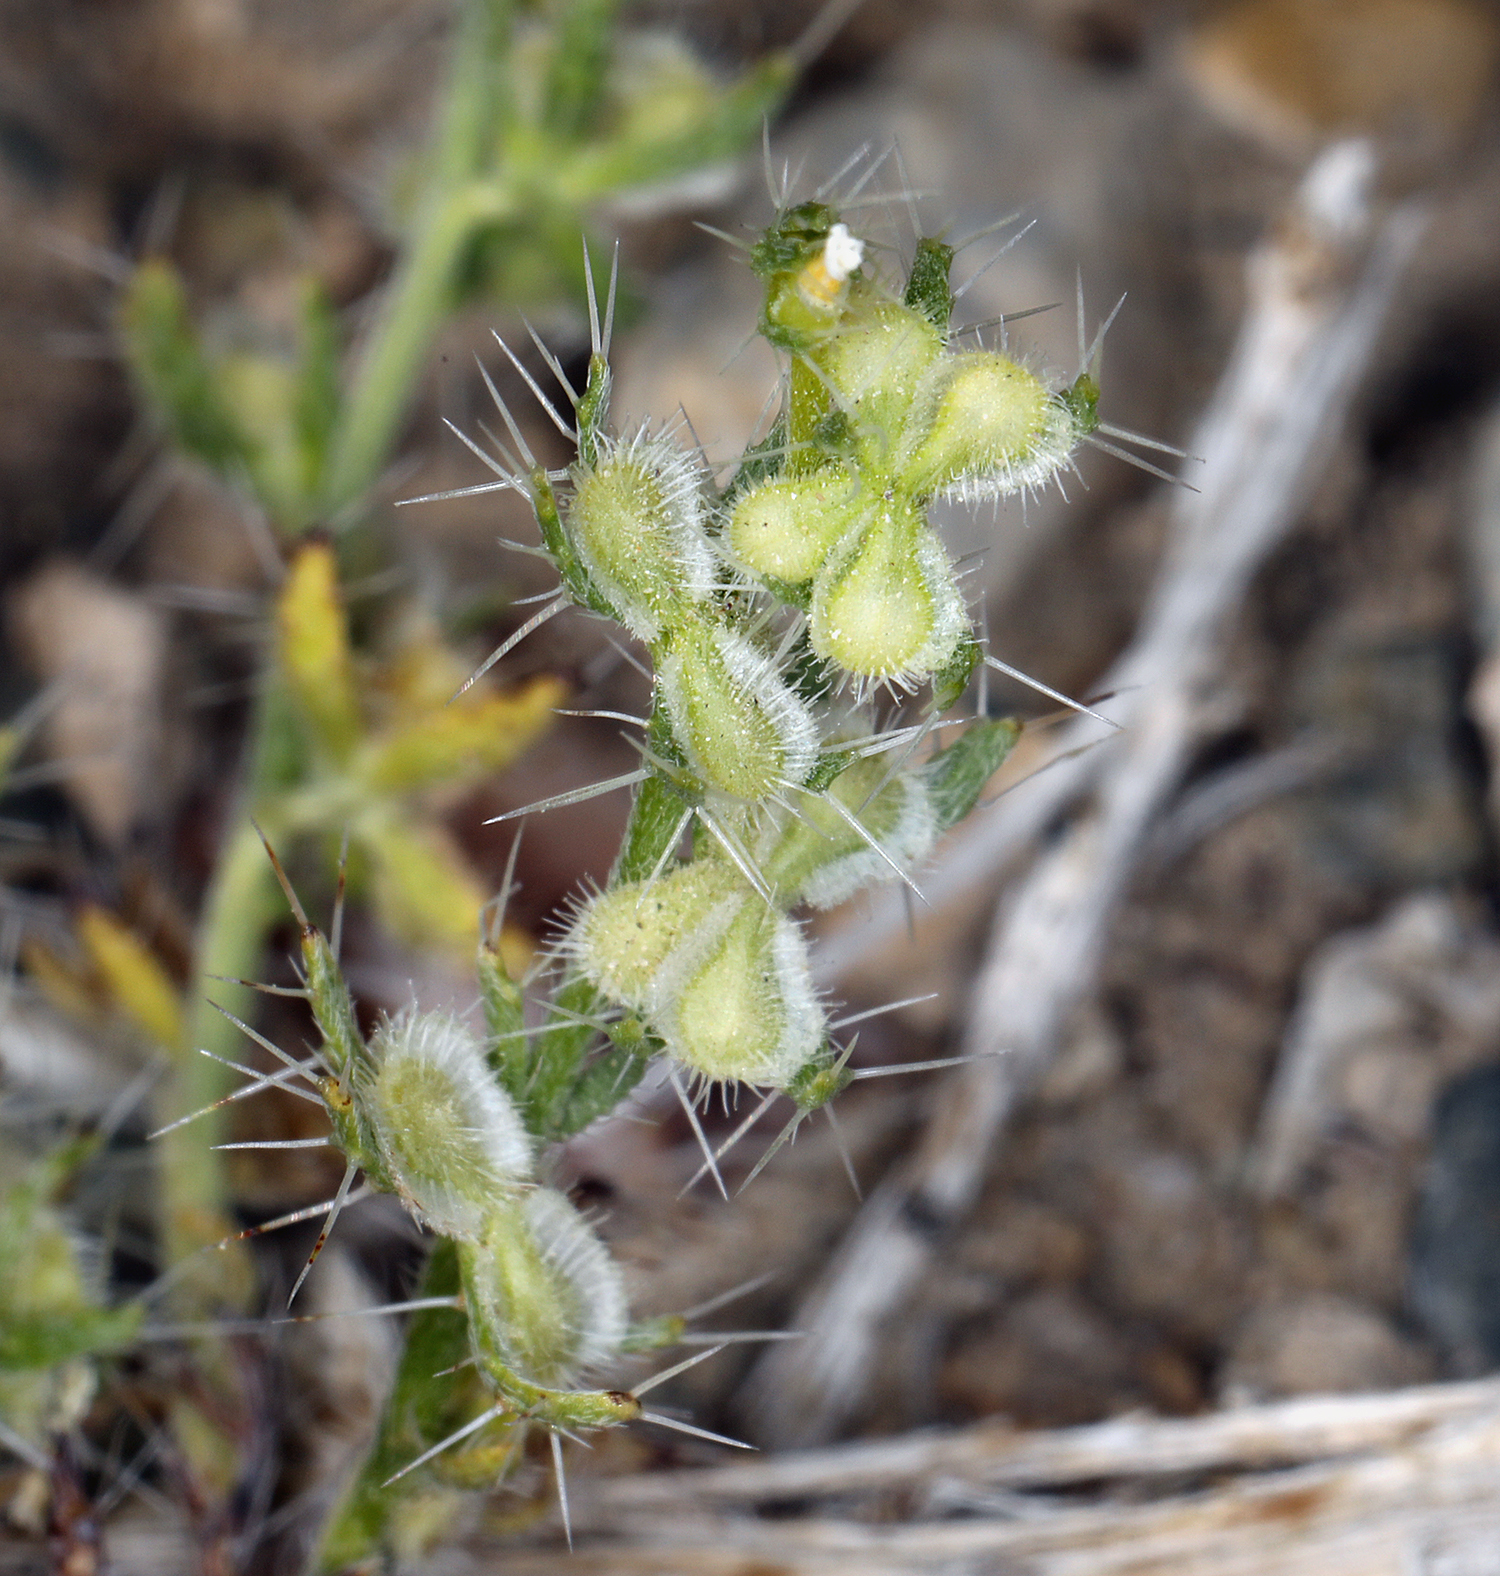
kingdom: Plantae
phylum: Tracheophyta
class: Magnoliopsida
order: Boraginales
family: Boraginaceae
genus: Pectocarya
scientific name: Pectocarya setosa
